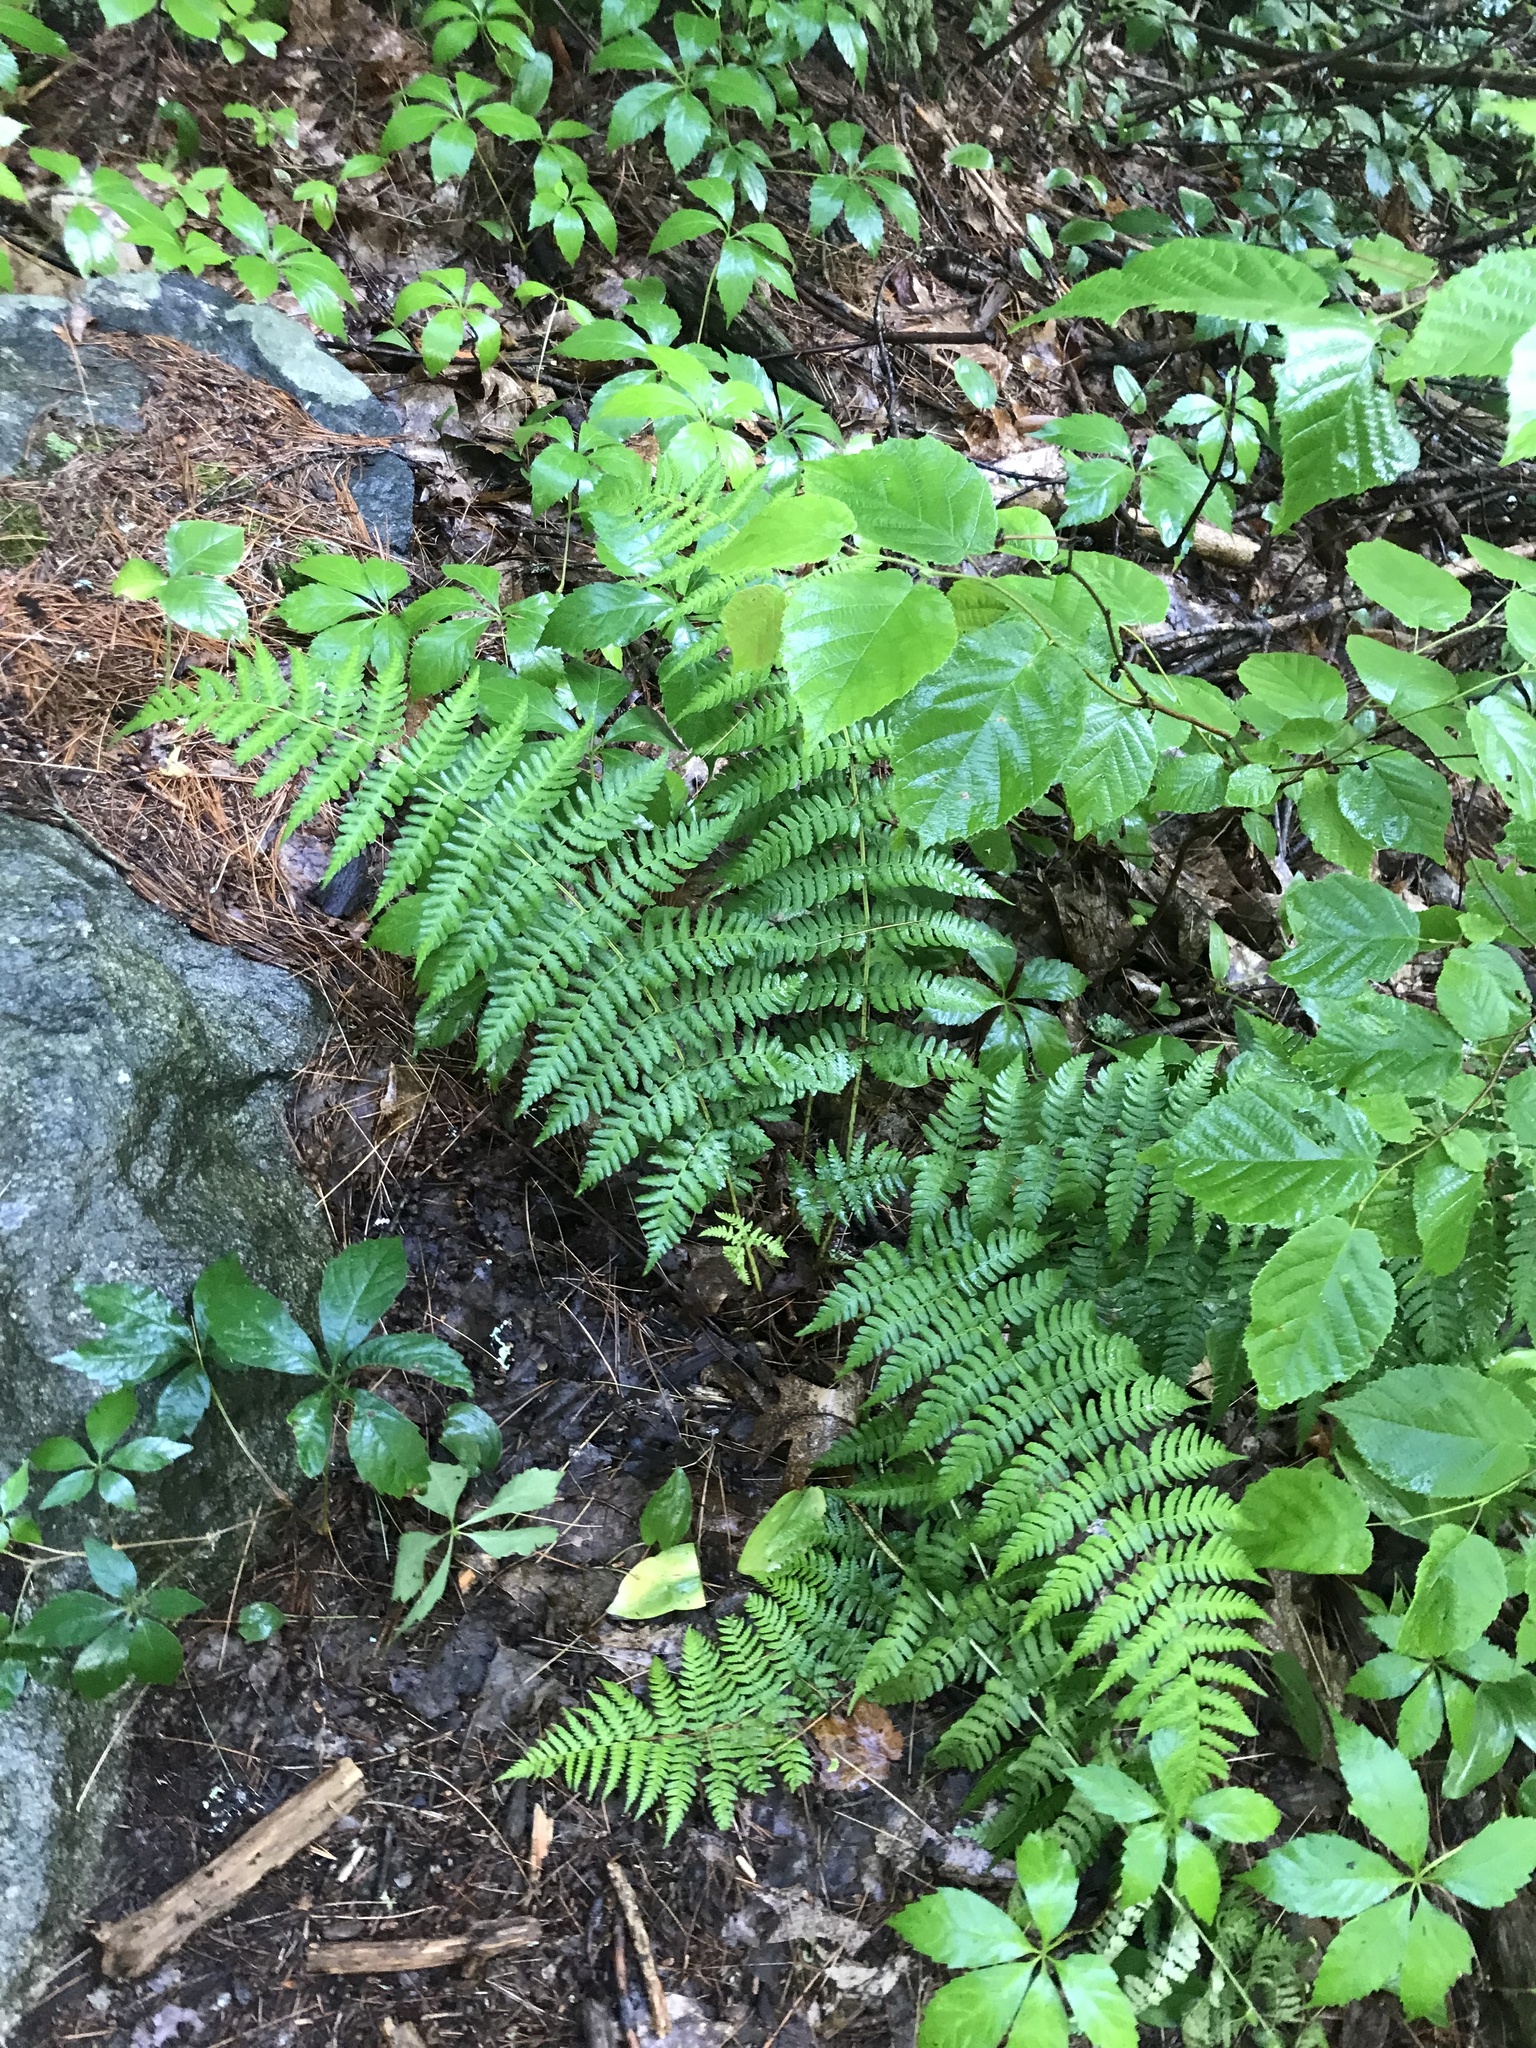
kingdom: Plantae
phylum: Tracheophyta
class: Polypodiopsida
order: Polypodiales
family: Dryopteridaceae
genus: Dryopteris
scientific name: Dryopteris marginalis
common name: Marginal wood fern
